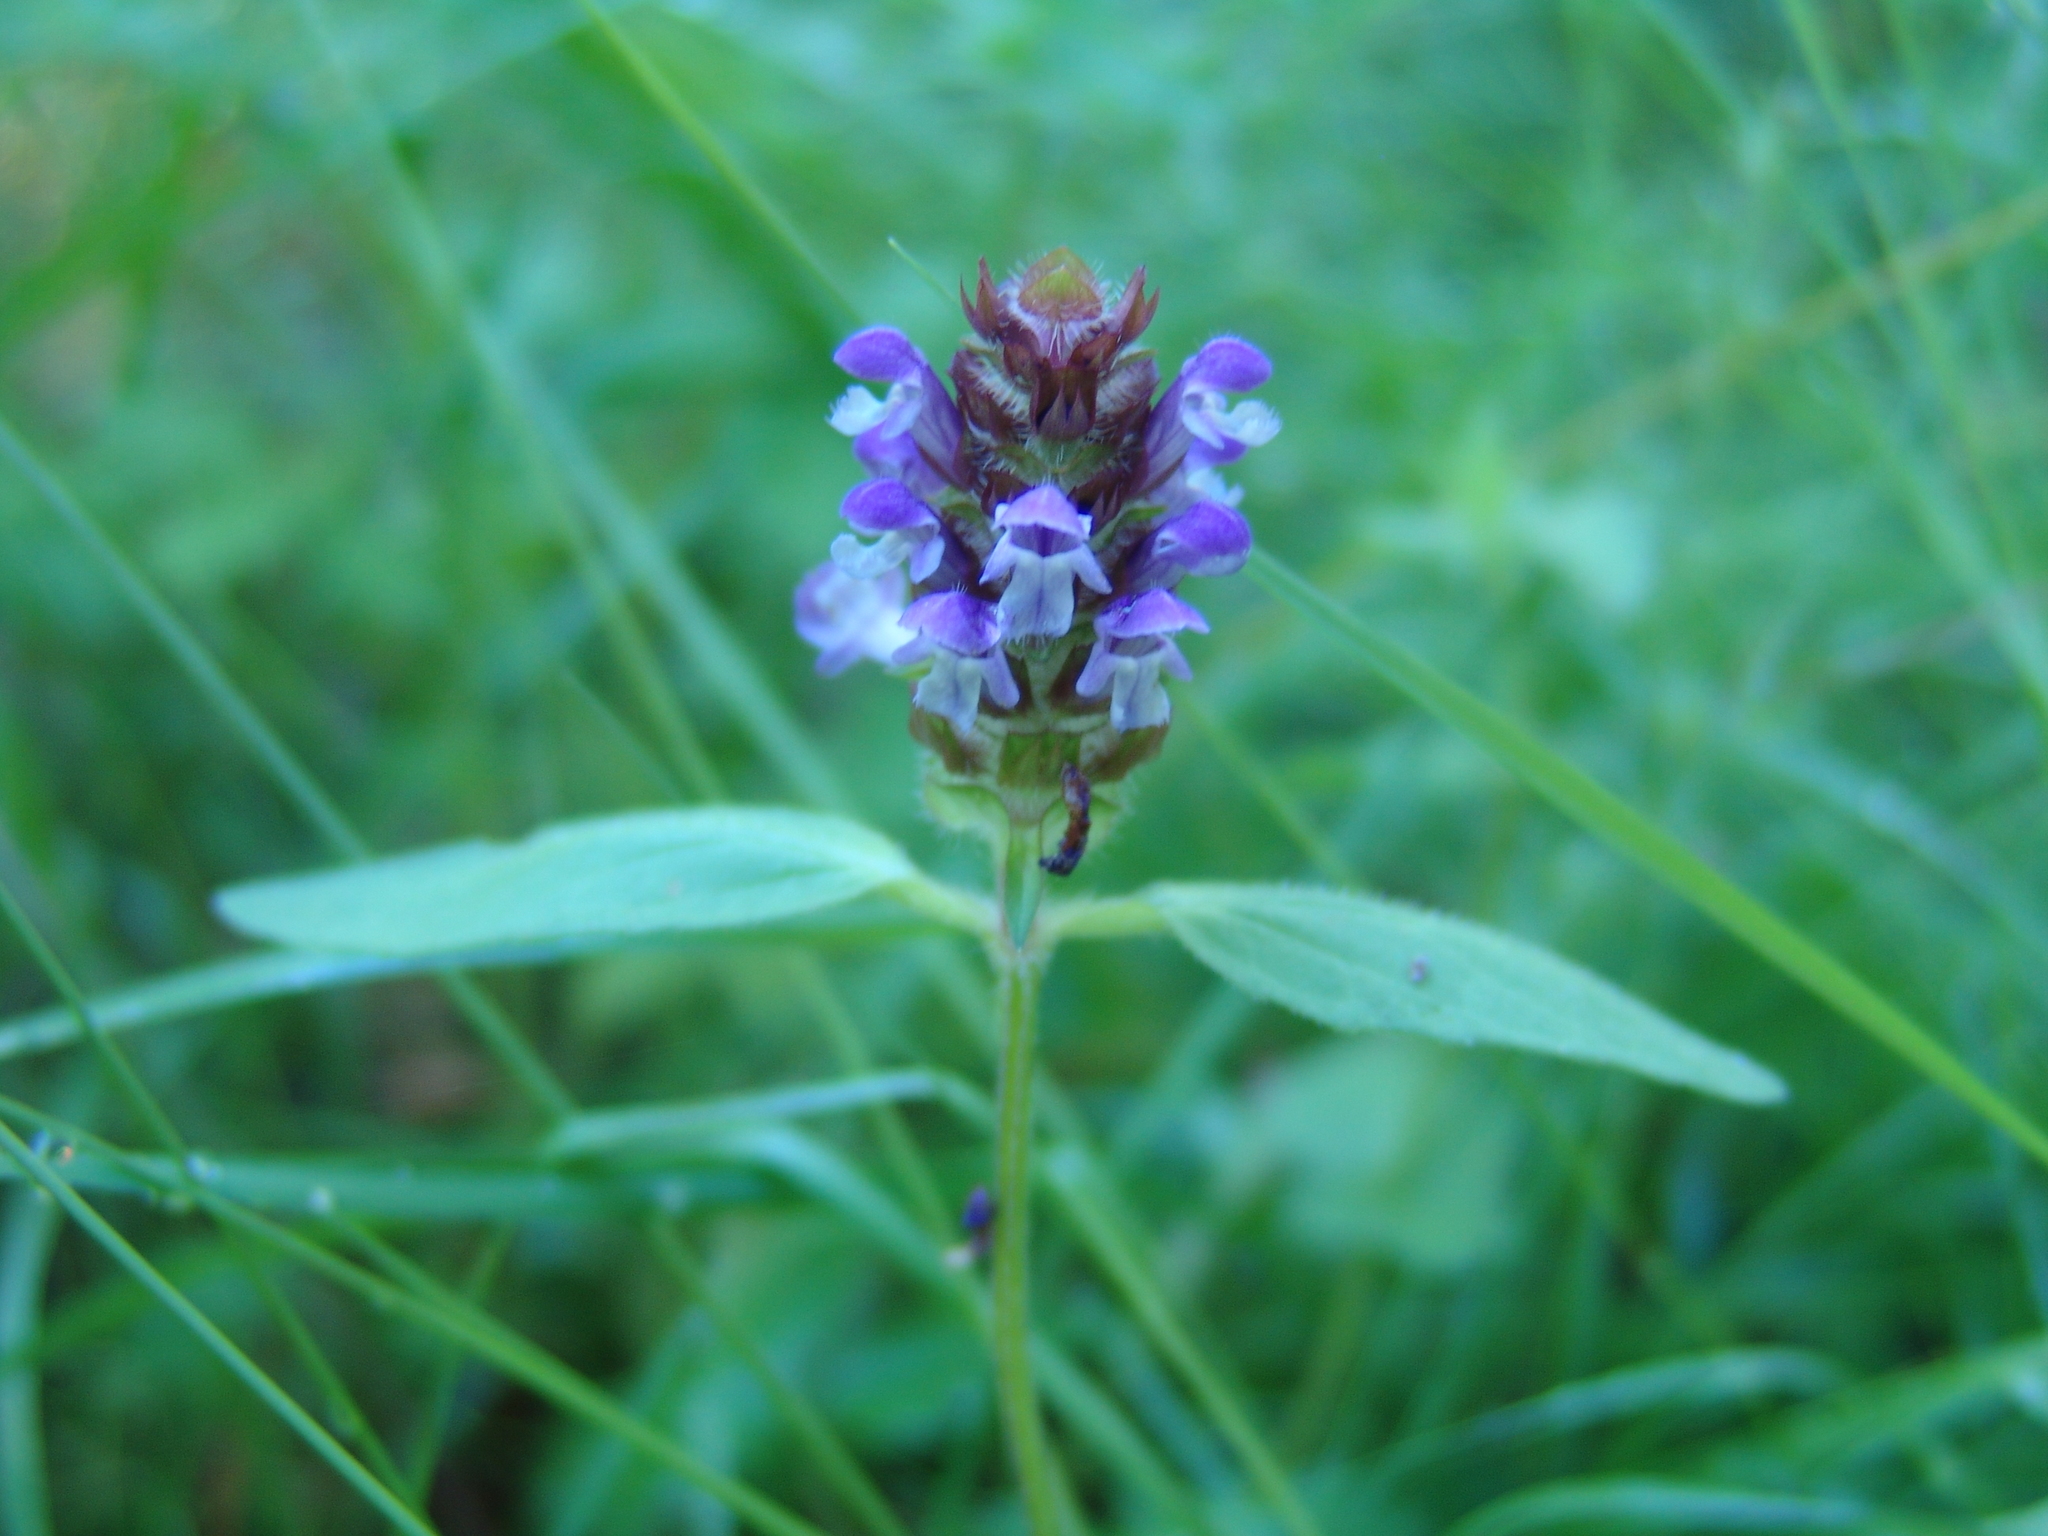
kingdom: Plantae
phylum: Tracheophyta
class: Magnoliopsida
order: Lamiales
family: Lamiaceae
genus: Prunella
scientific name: Prunella vulgaris
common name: Heal-all
